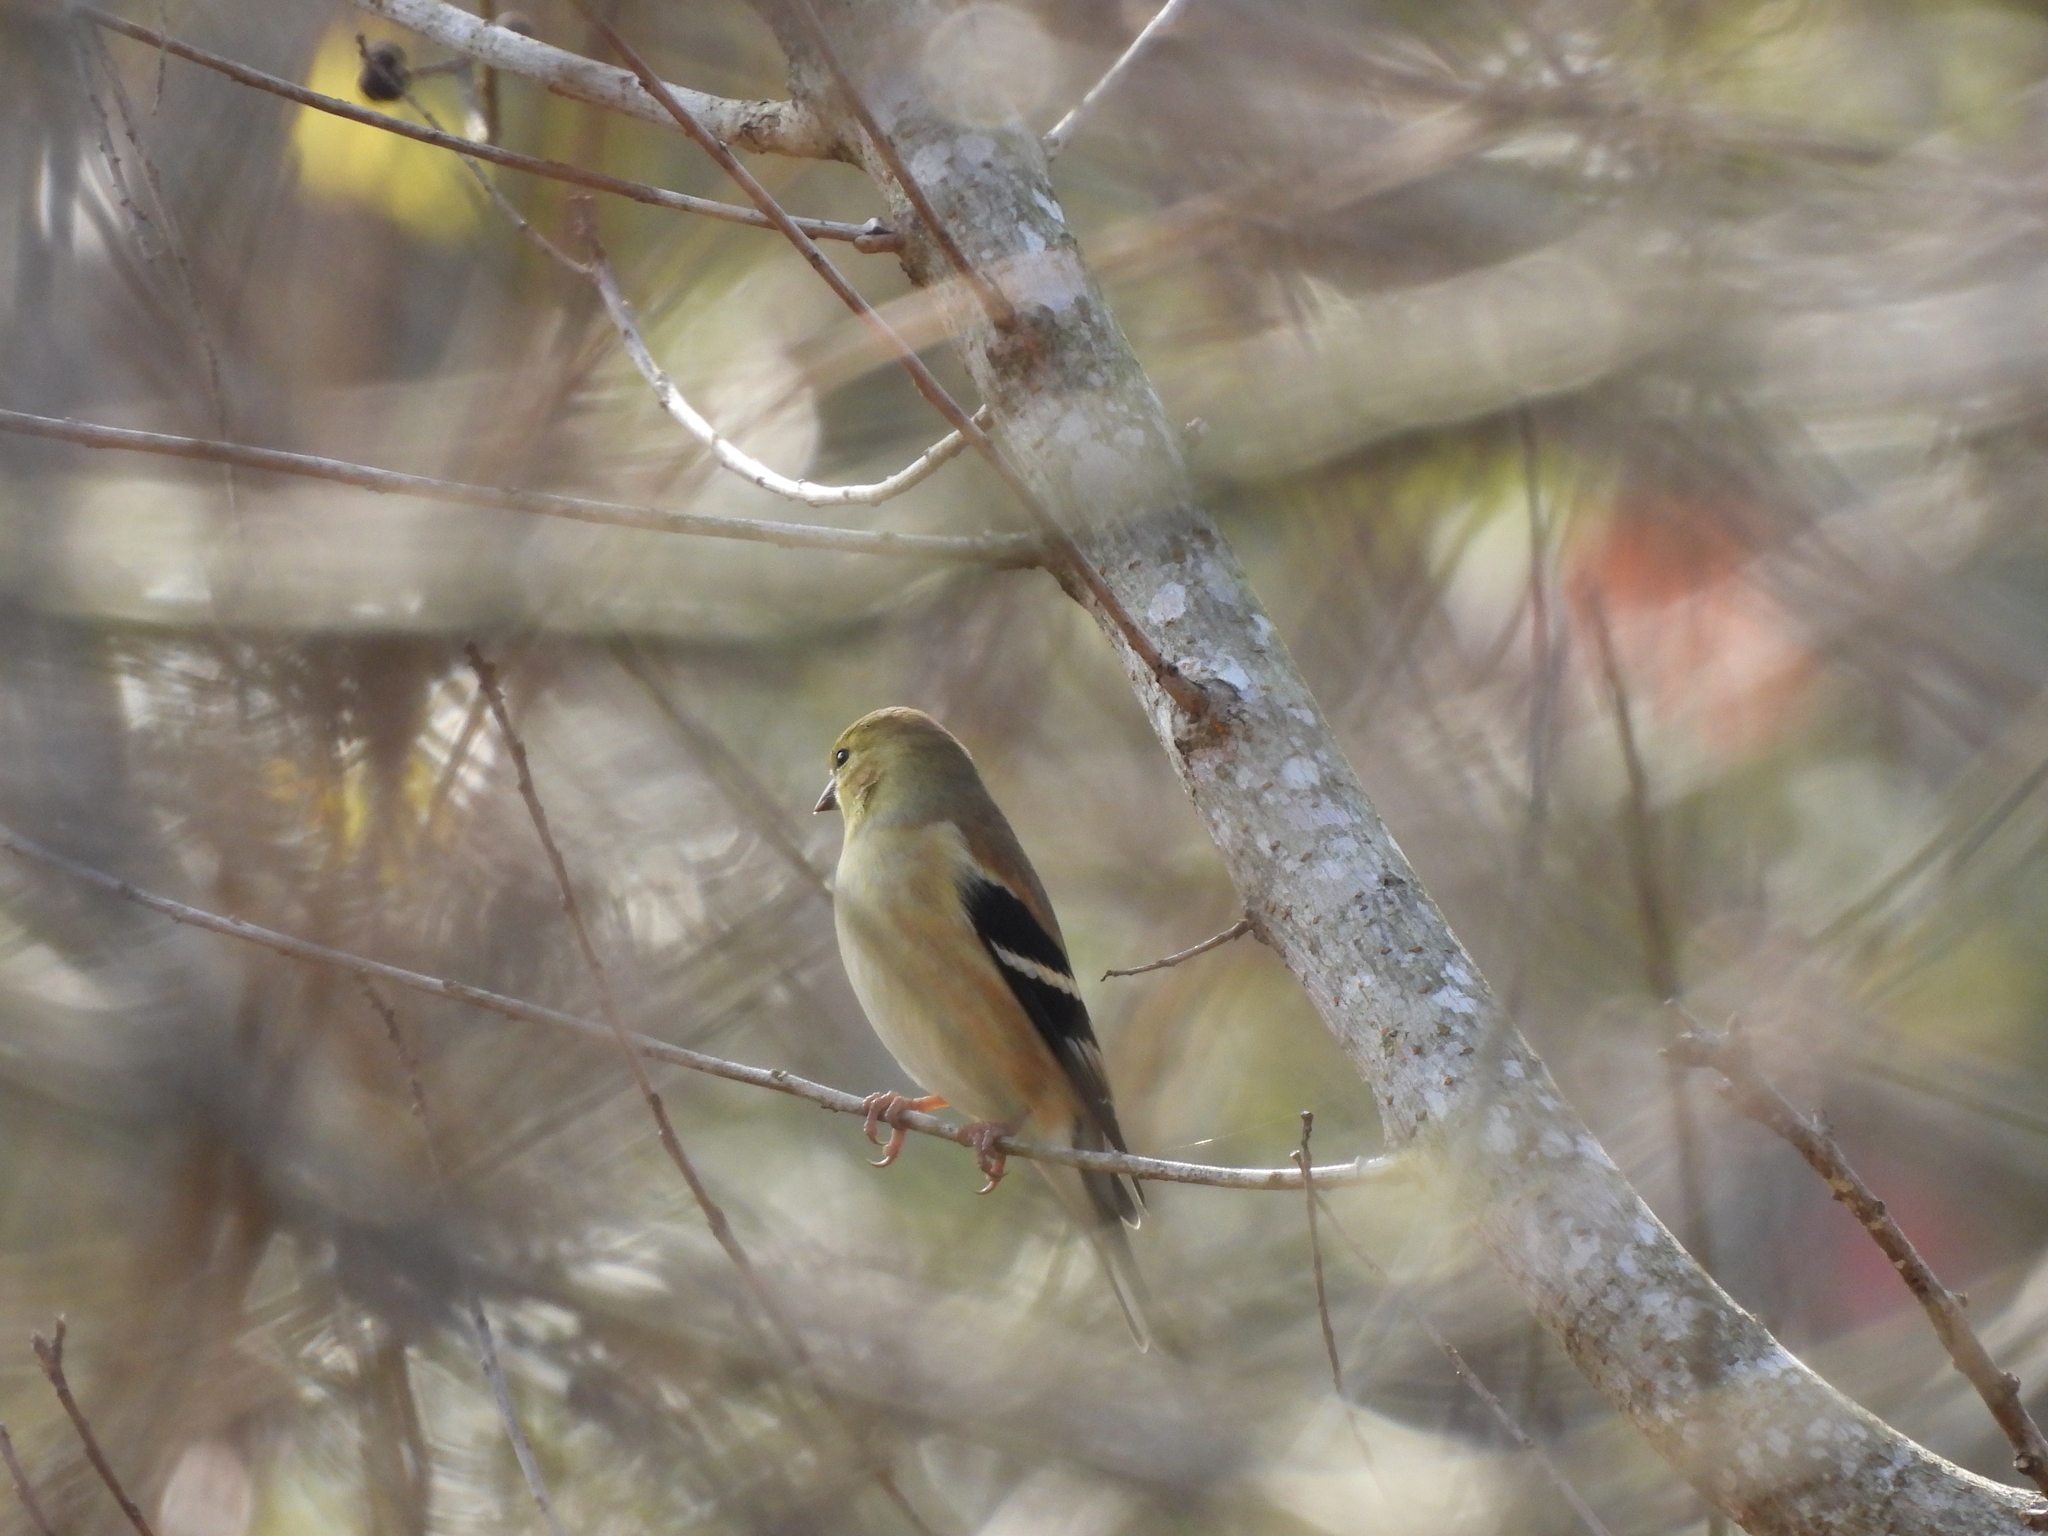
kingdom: Animalia
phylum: Chordata
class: Aves
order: Passeriformes
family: Fringillidae
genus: Spinus
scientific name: Spinus tristis
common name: American goldfinch
